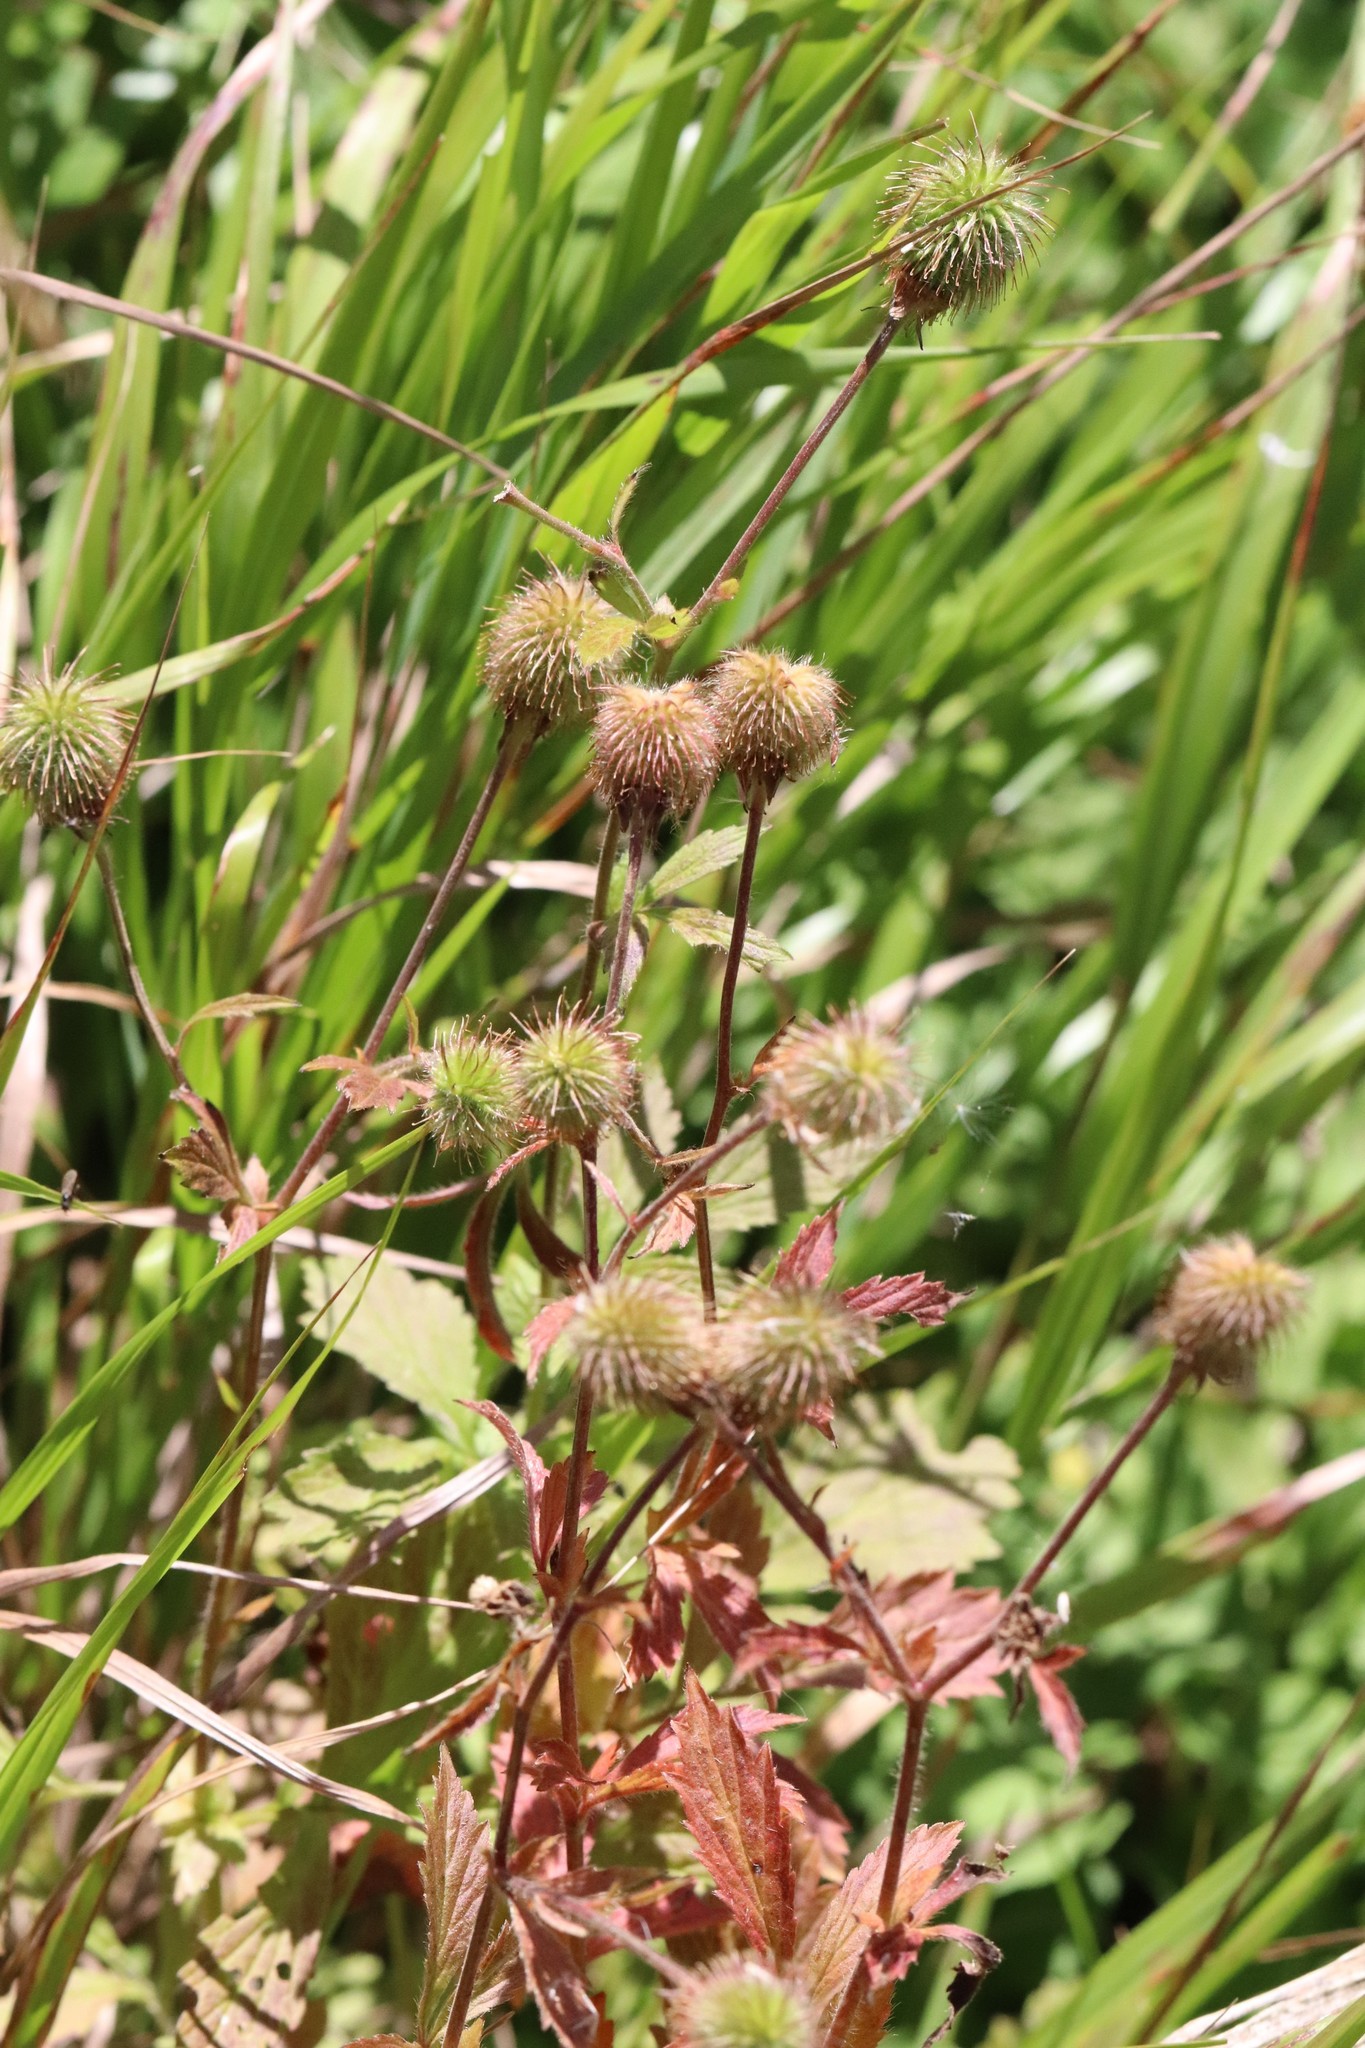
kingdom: Plantae
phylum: Tracheophyta
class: Magnoliopsida
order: Rosales
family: Rosaceae
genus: Geum
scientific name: Geum aleppicum
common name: Yellow avens
